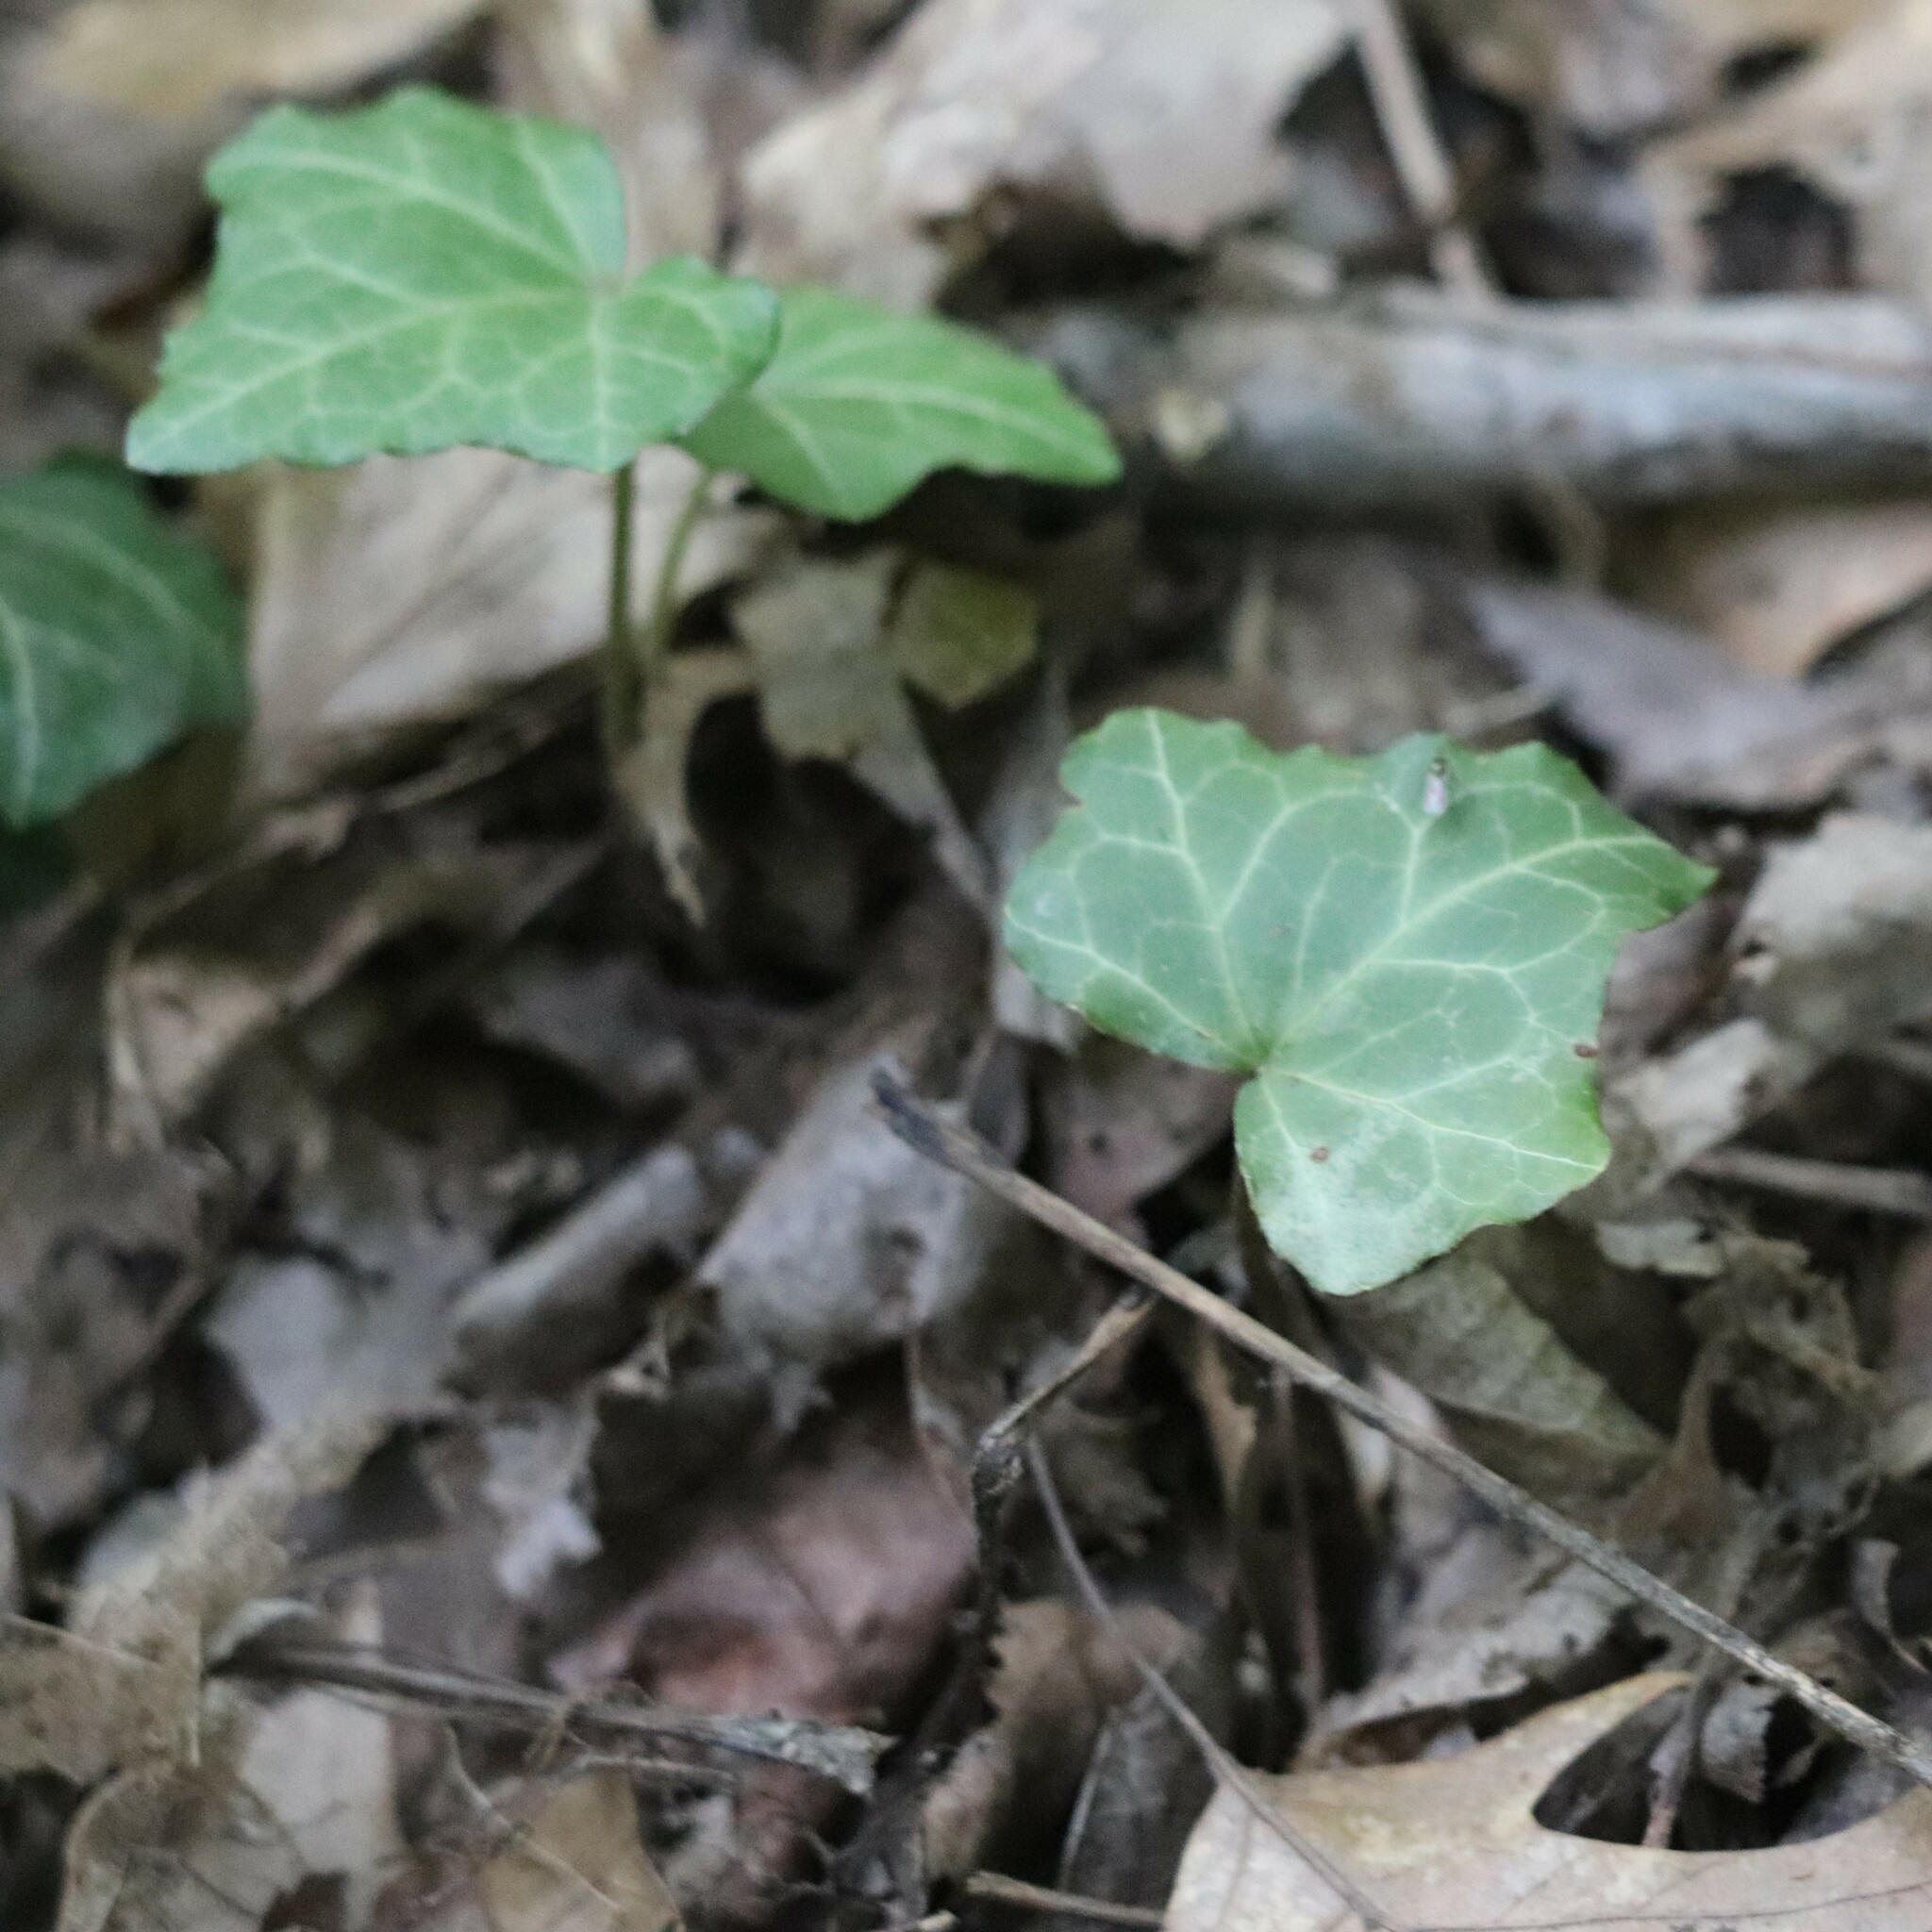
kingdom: Plantae
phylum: Tracheophyta
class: Magnoliopsida
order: Apiales
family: Araliaceae
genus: Hedera
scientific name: Hedera helix
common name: Ivy
